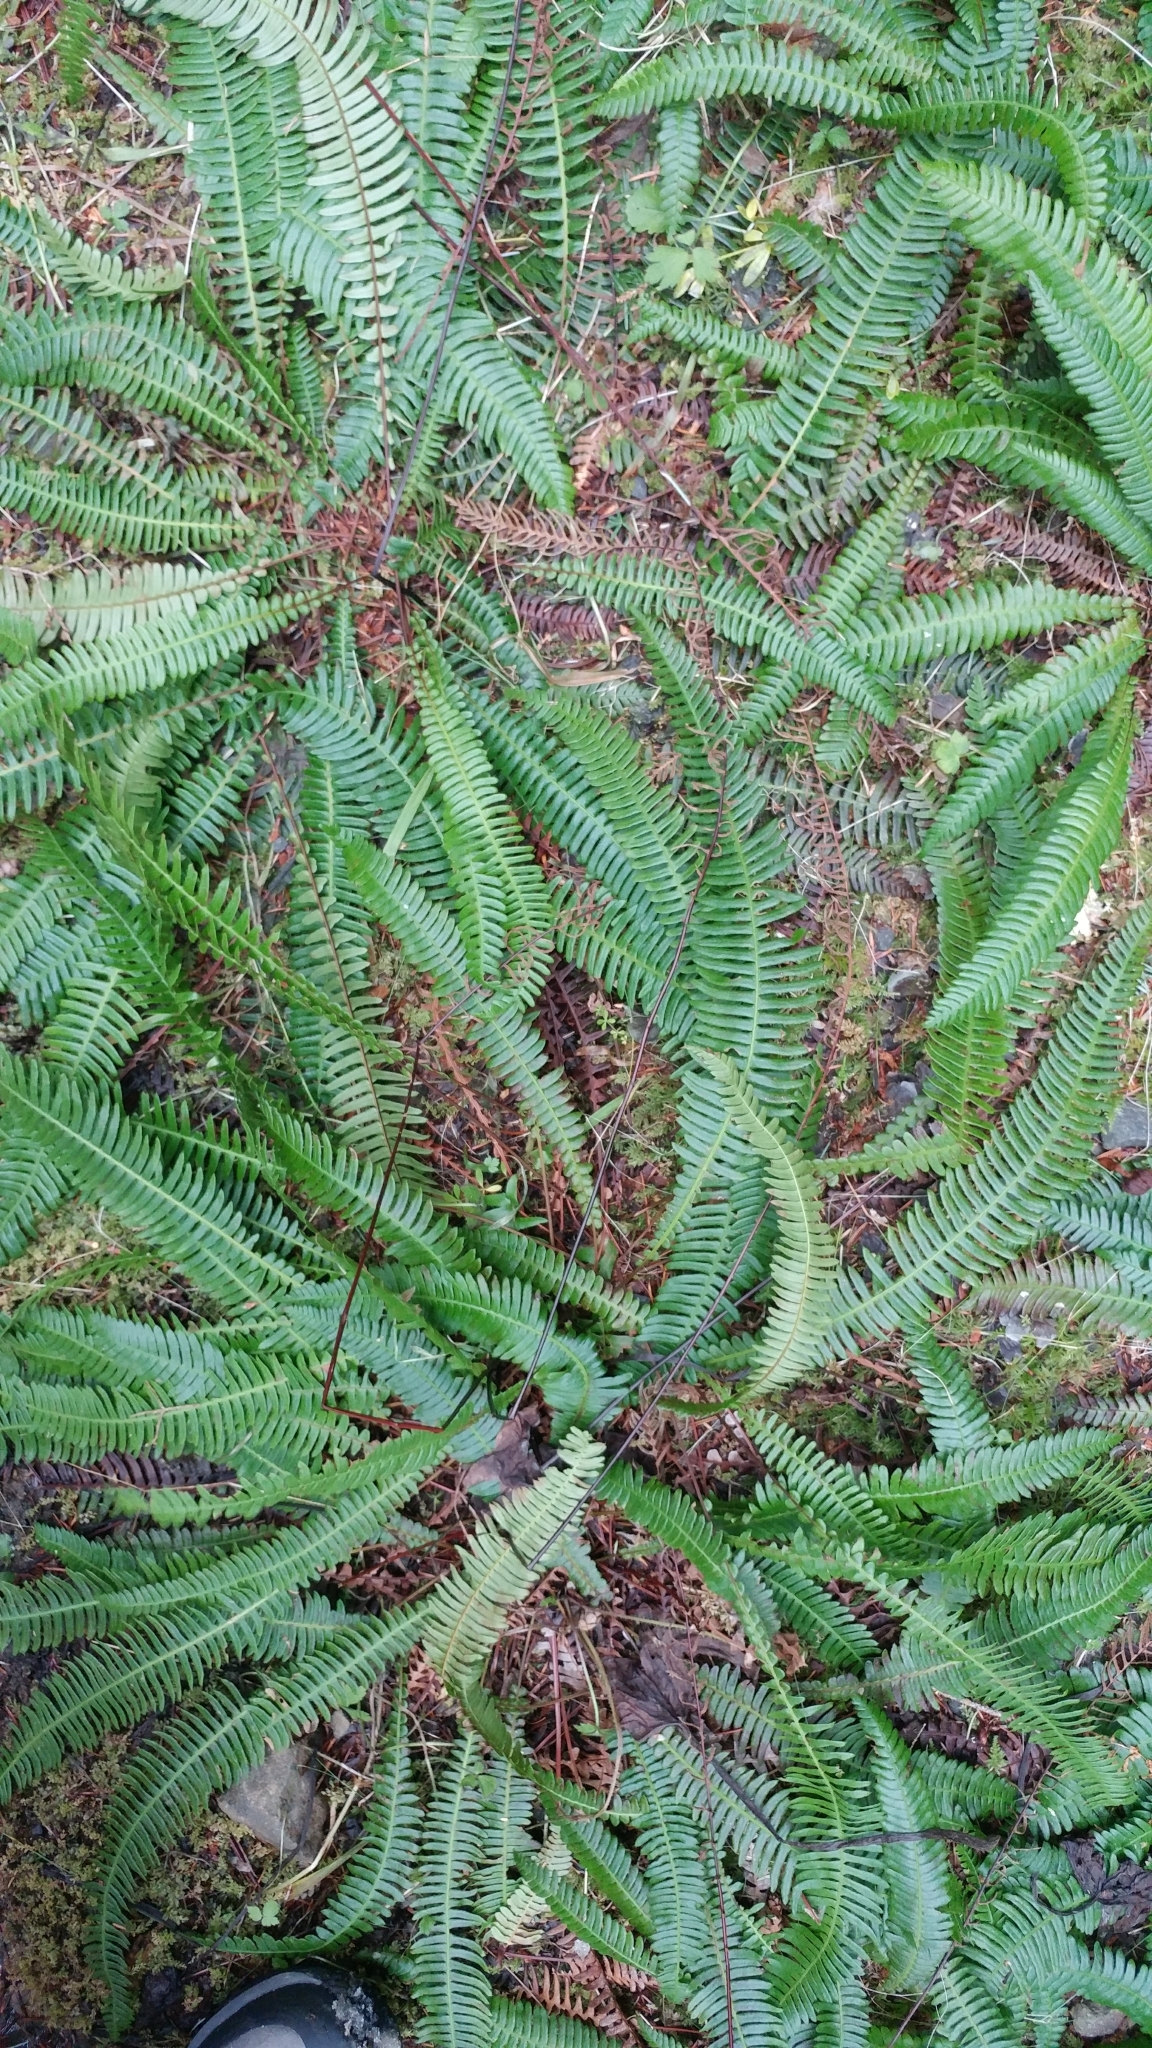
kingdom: Plantae
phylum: Tracheophyta
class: Polypodiopsida
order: Polypodiales
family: Blechnaceae
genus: Struthiopteris
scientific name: Struthiopteris spicant
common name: Deer fern
